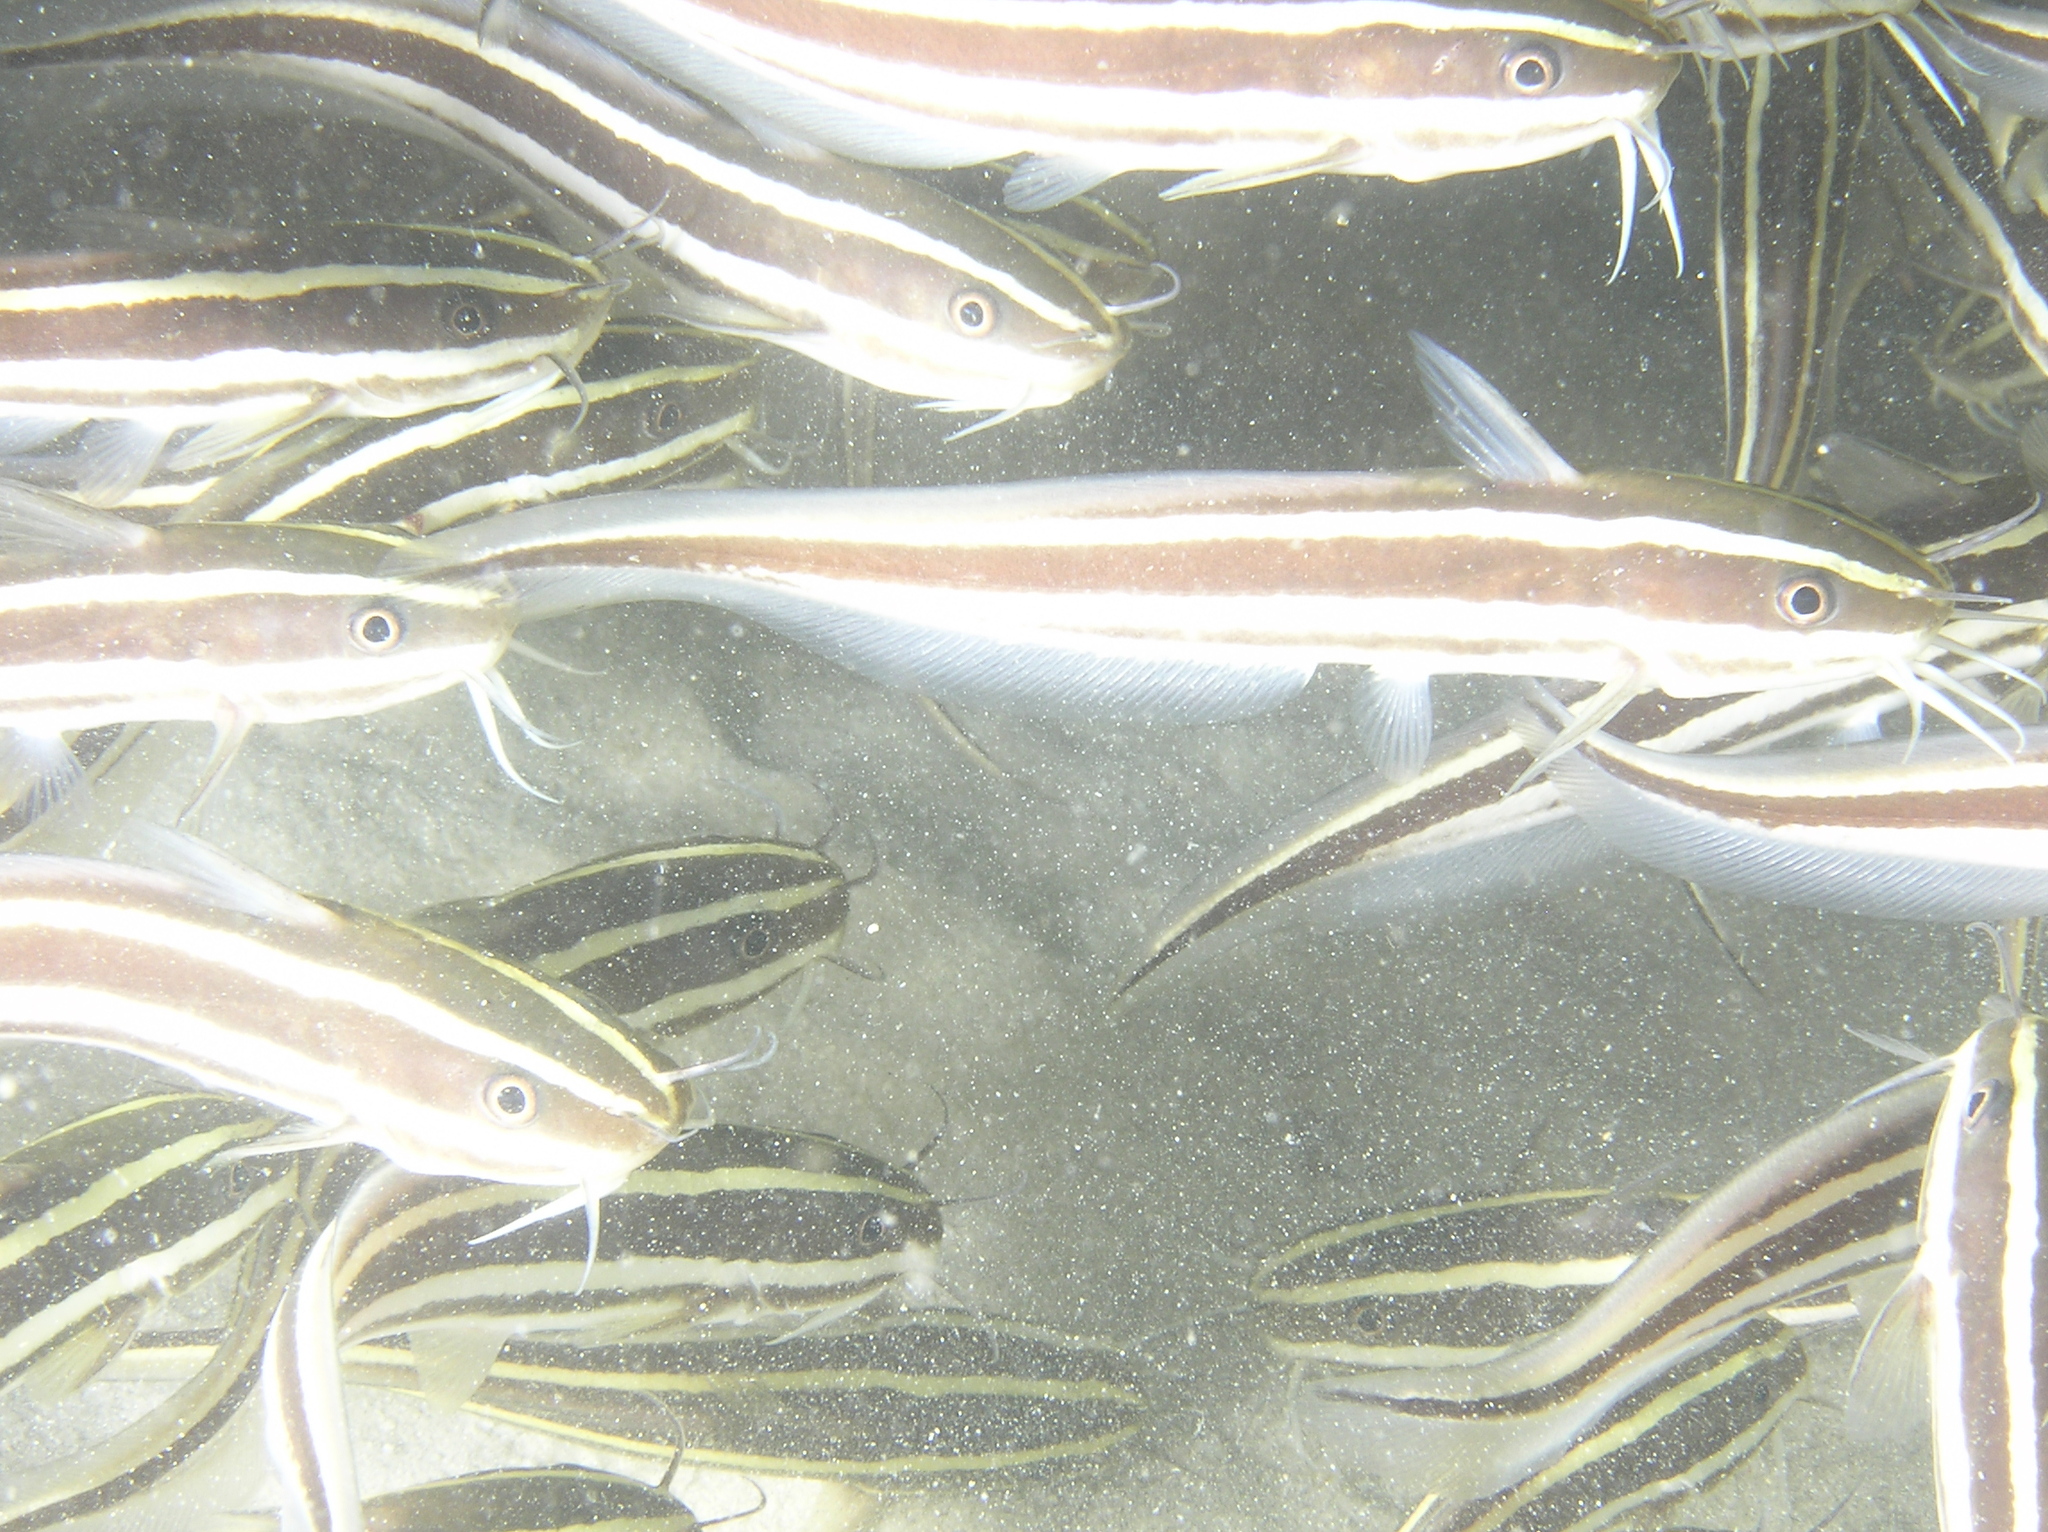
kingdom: Animalia
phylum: Chordata
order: Siluriformes
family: Plotosidae
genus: Plotosus
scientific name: Plotosus lineatus
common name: Striped eel catfish
